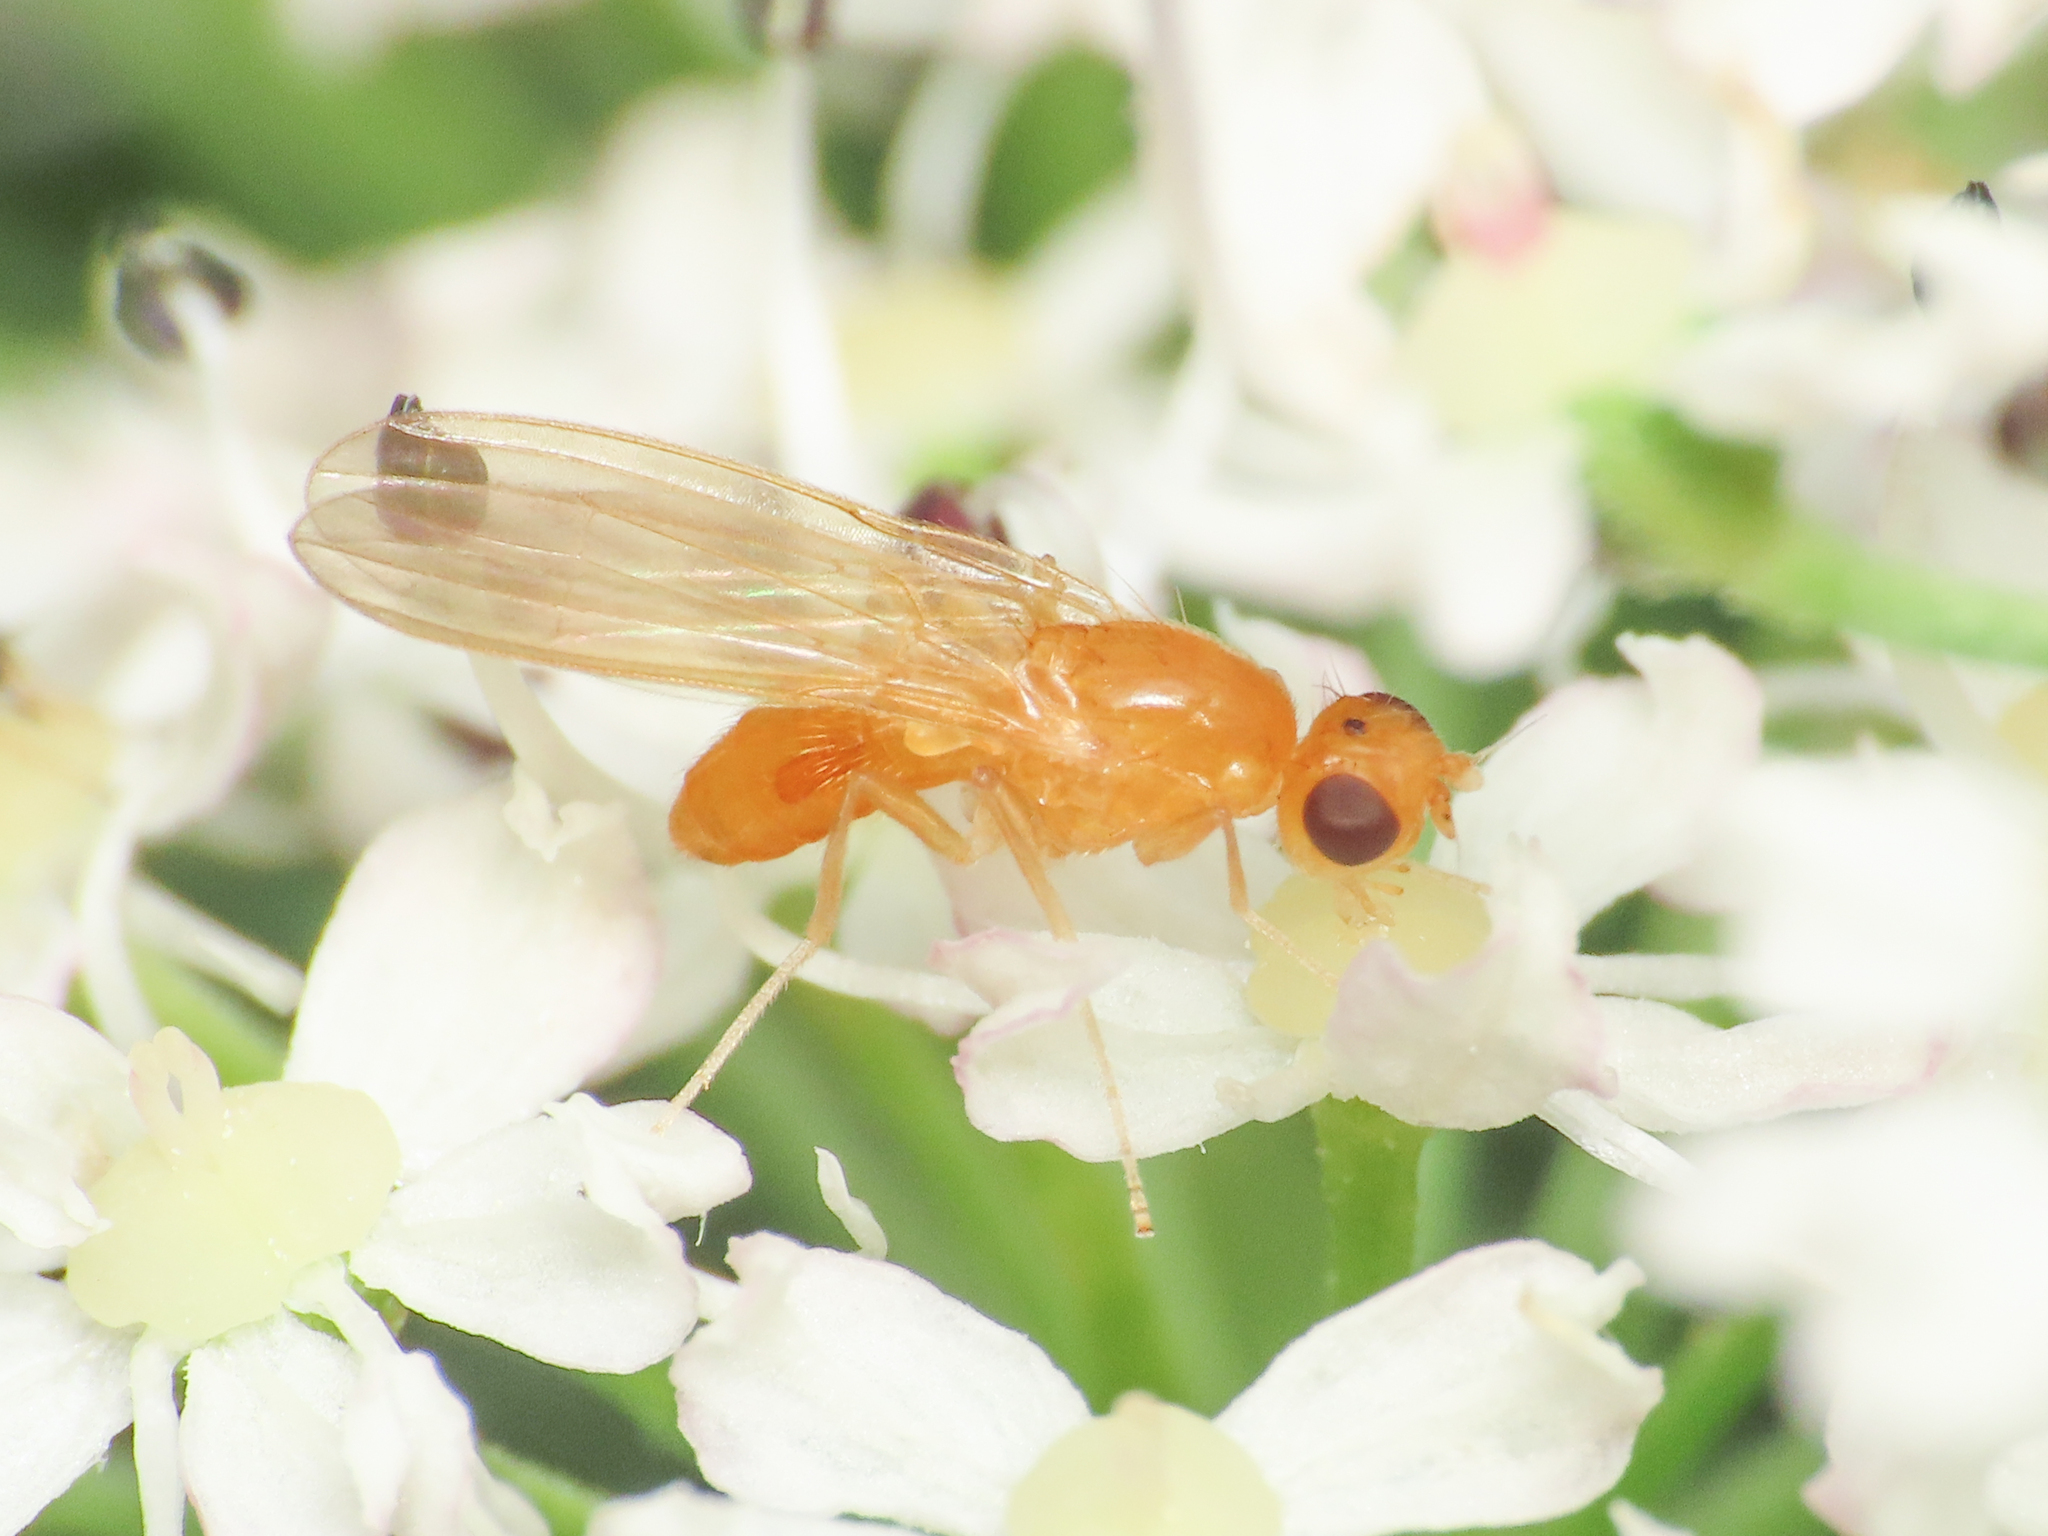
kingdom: Animalia
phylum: Arthropoda
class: Insecta
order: Diptera
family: Psilidae
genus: Chamaepsila
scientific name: Chamaepsila pallida
